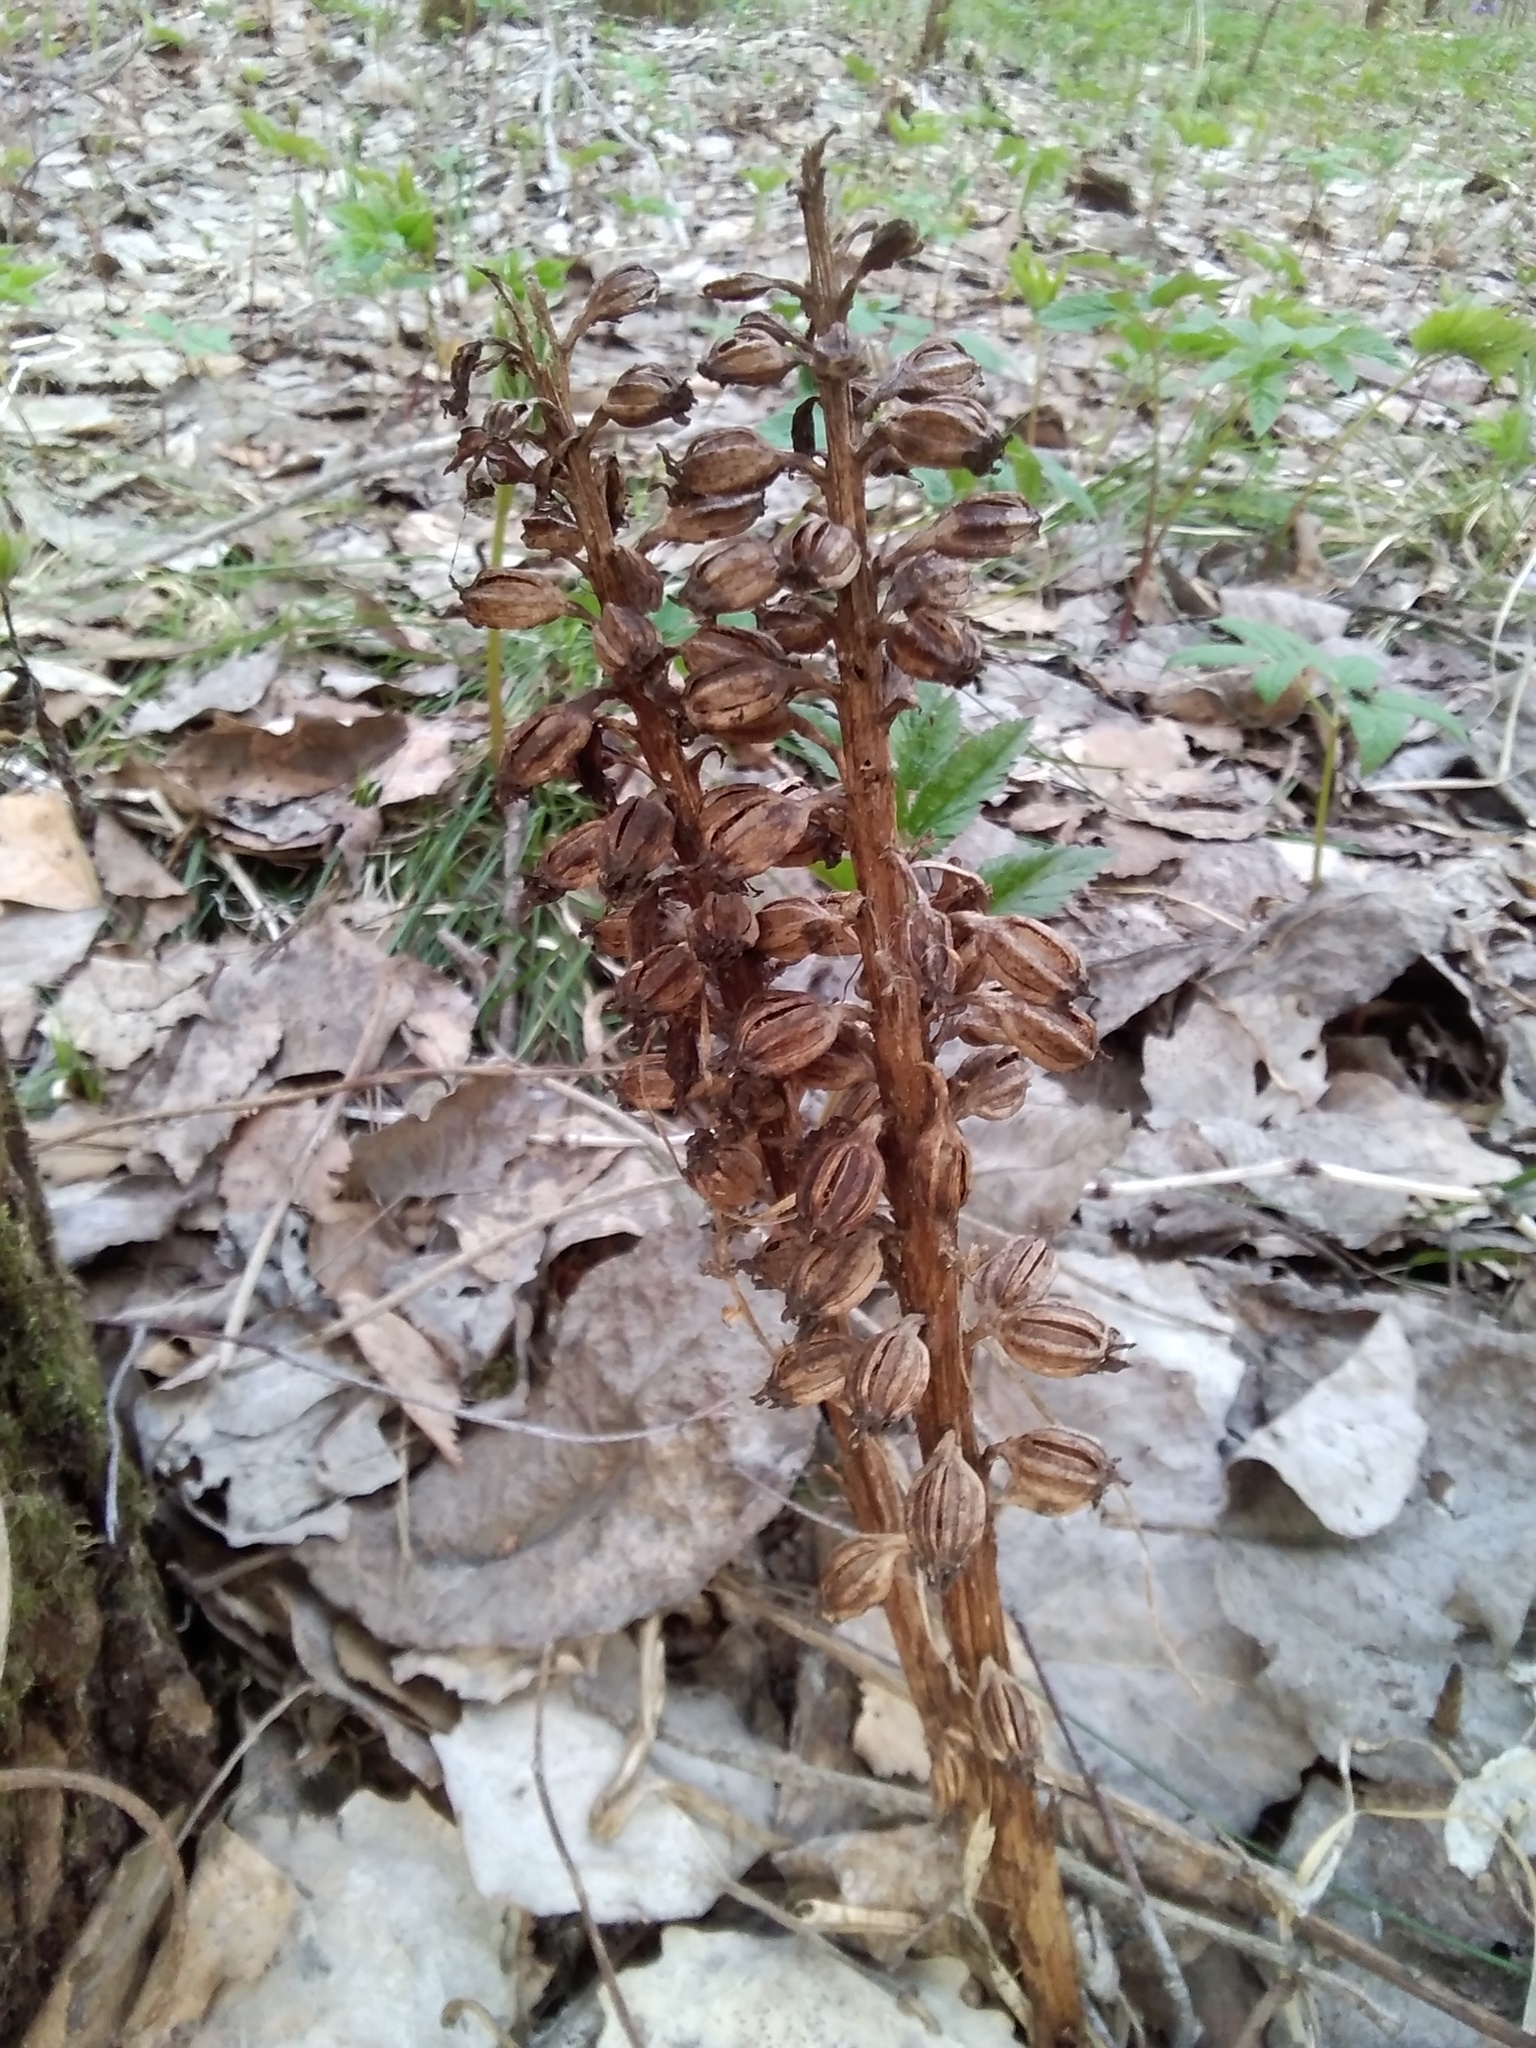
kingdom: Plantae
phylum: Tracheophyta
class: Liliopsida
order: Asparagales
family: Orchidaceae
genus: Neottia
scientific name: Neottia nidus-avis
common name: Bird's-nest orchid
